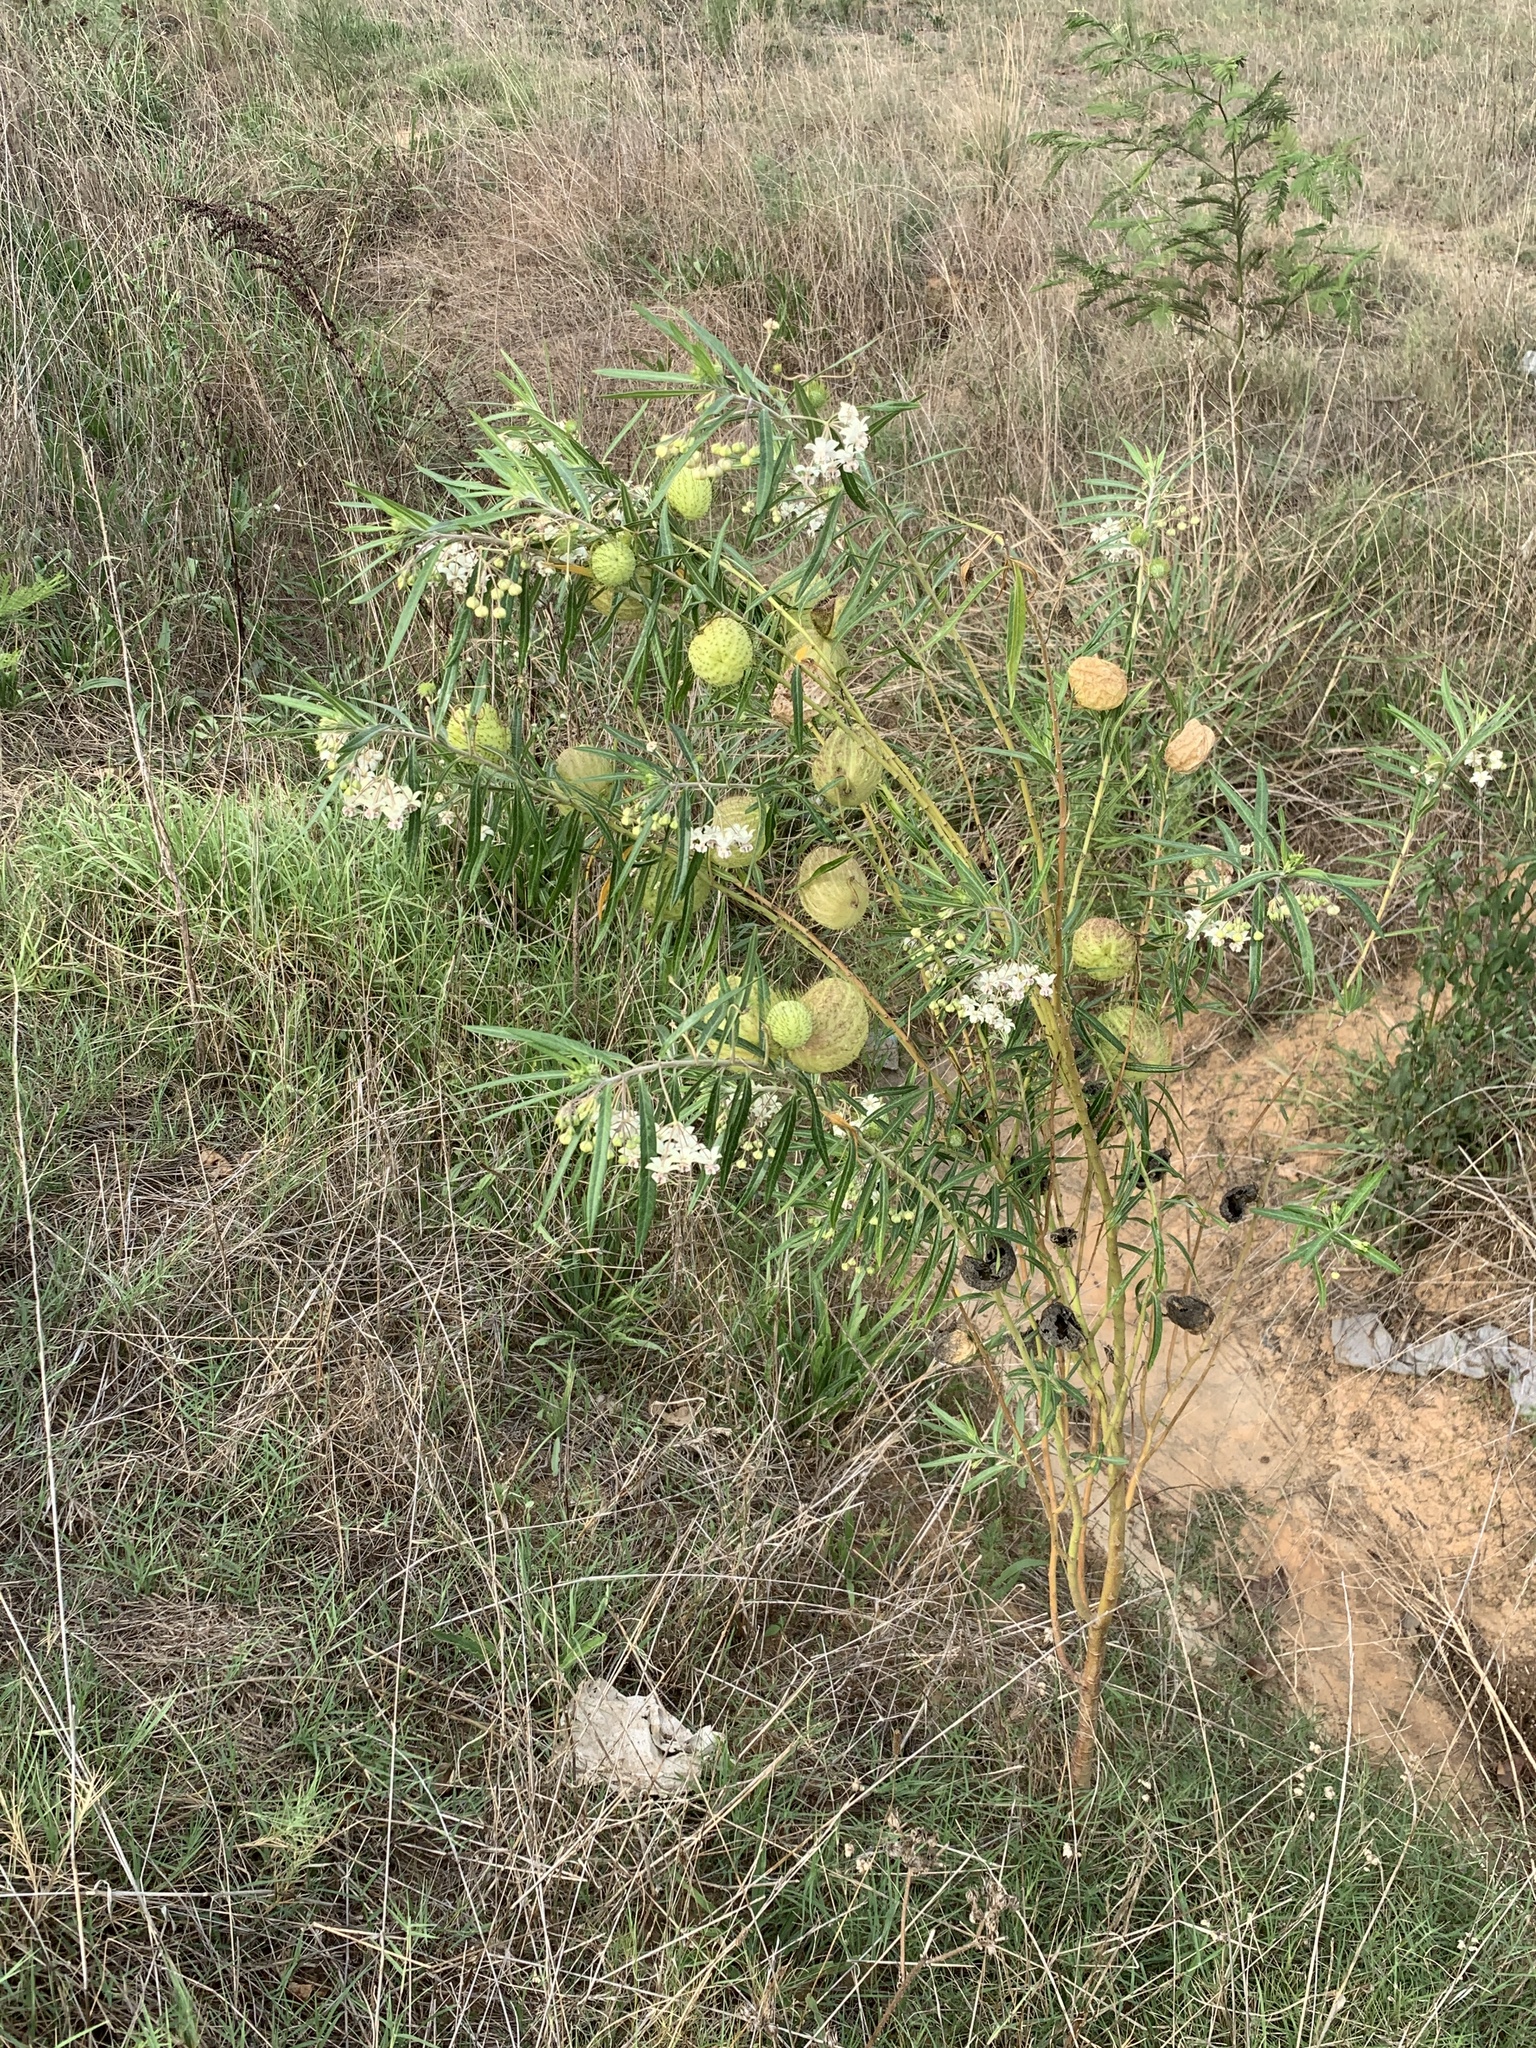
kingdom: Plantae
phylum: Tracheophyta
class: Magnoliopsida
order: Gentianales
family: Apocynaceae
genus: Gomphocarpus
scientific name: Gomphocarpus physocarpus
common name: Balloon cotton bush
